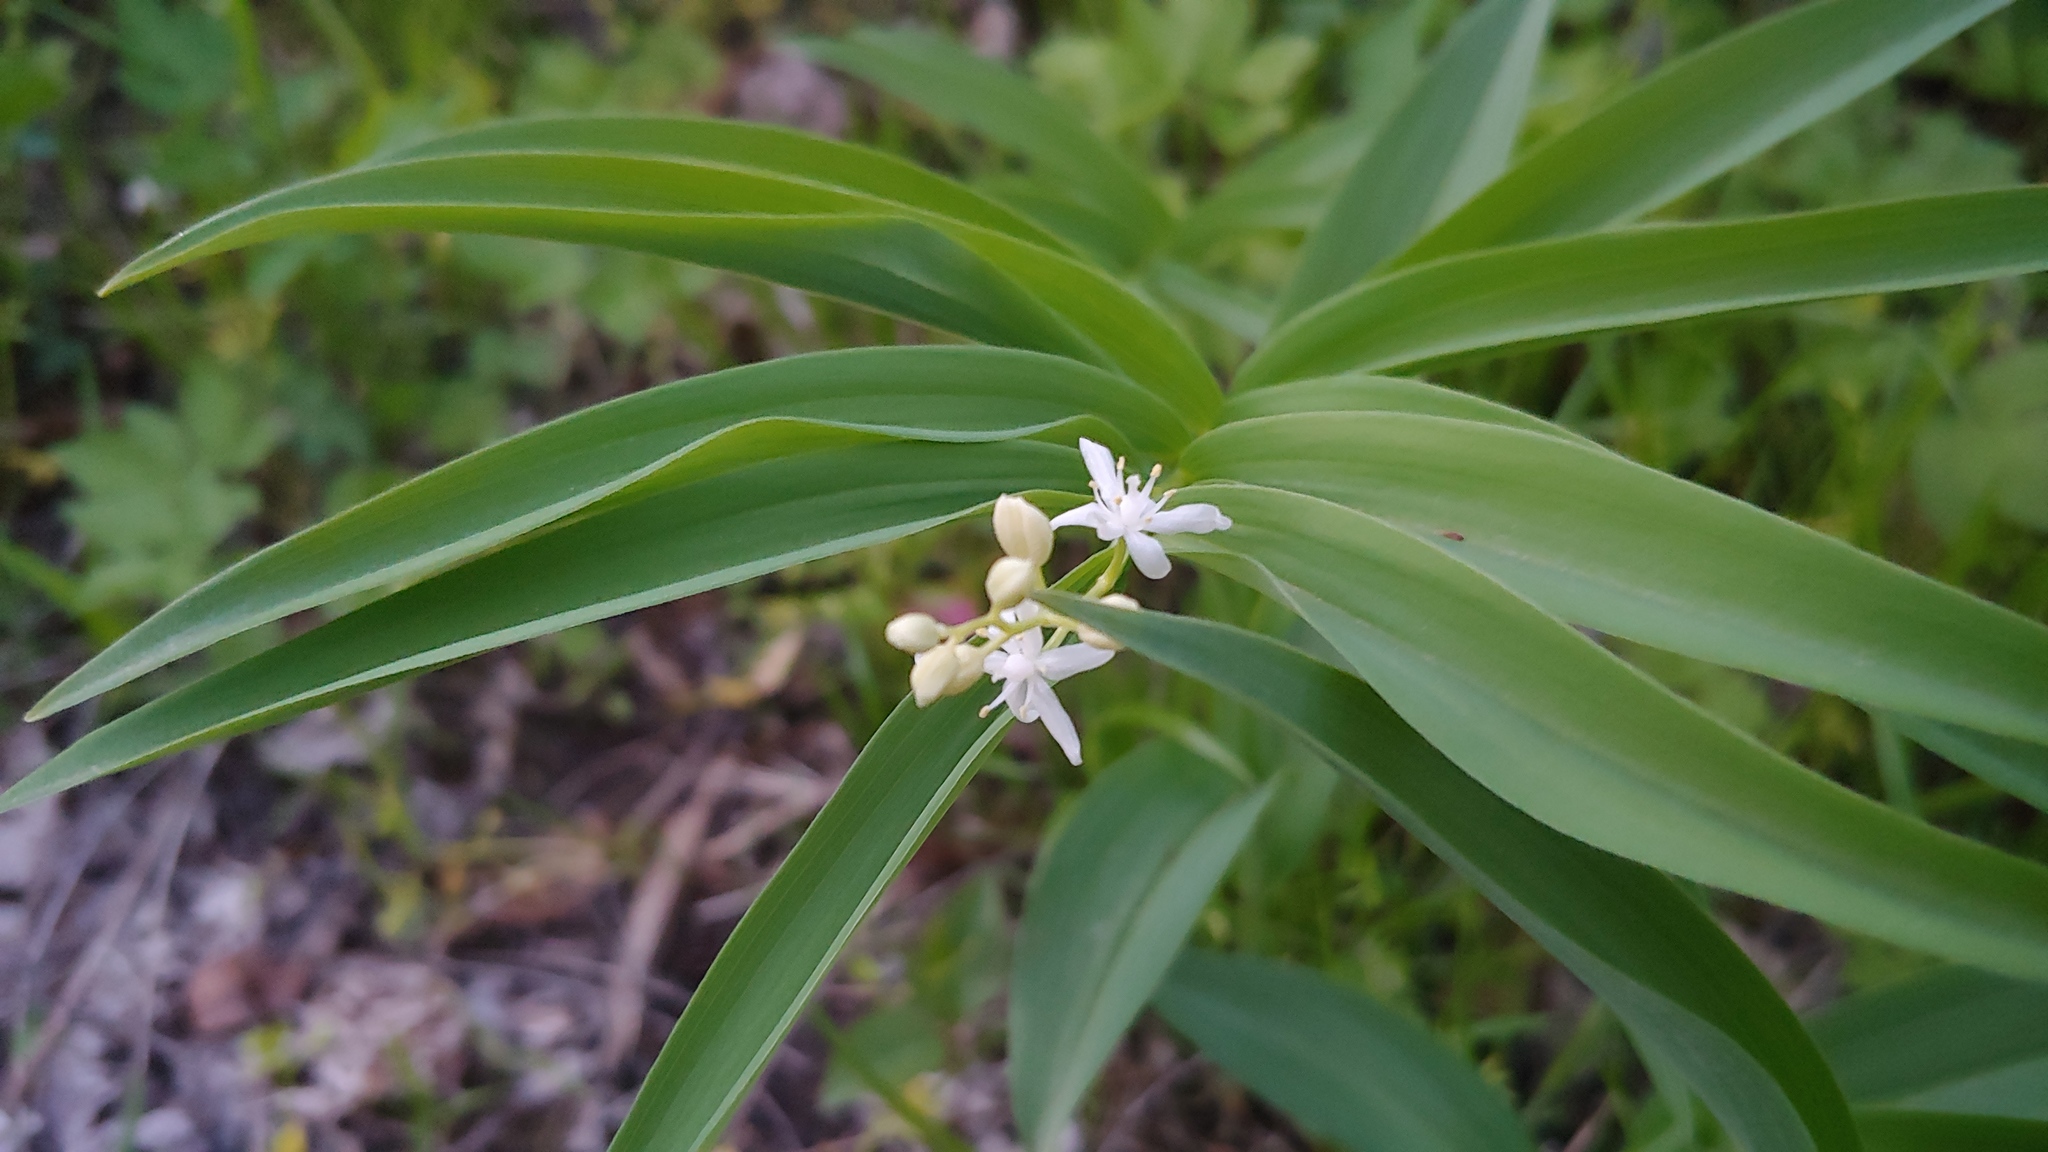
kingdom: Plantae
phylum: Tracheophyta
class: Liliopsida
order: Asparagales
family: Asparagaceae
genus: Maianthemum
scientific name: Maianthemum stellatum
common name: Little false solomon's seal
